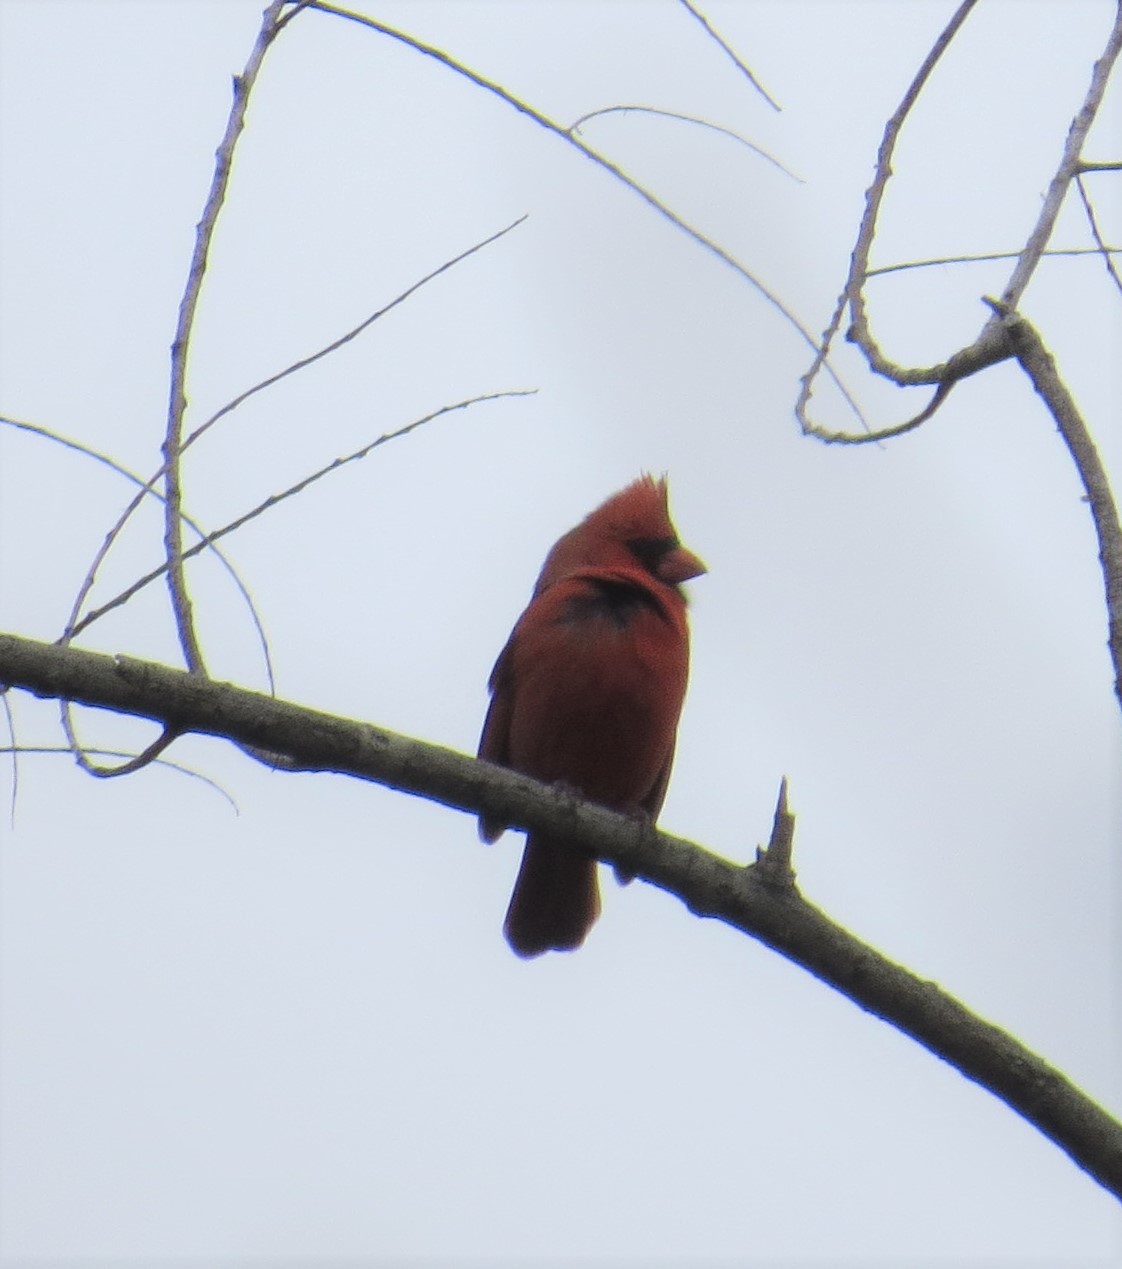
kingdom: Animalia
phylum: Chordata
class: Aves
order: Passeriformes
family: Cardinalidae
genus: Cardinalis
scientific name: Cardinalis cardinalis
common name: Northern cardinal
